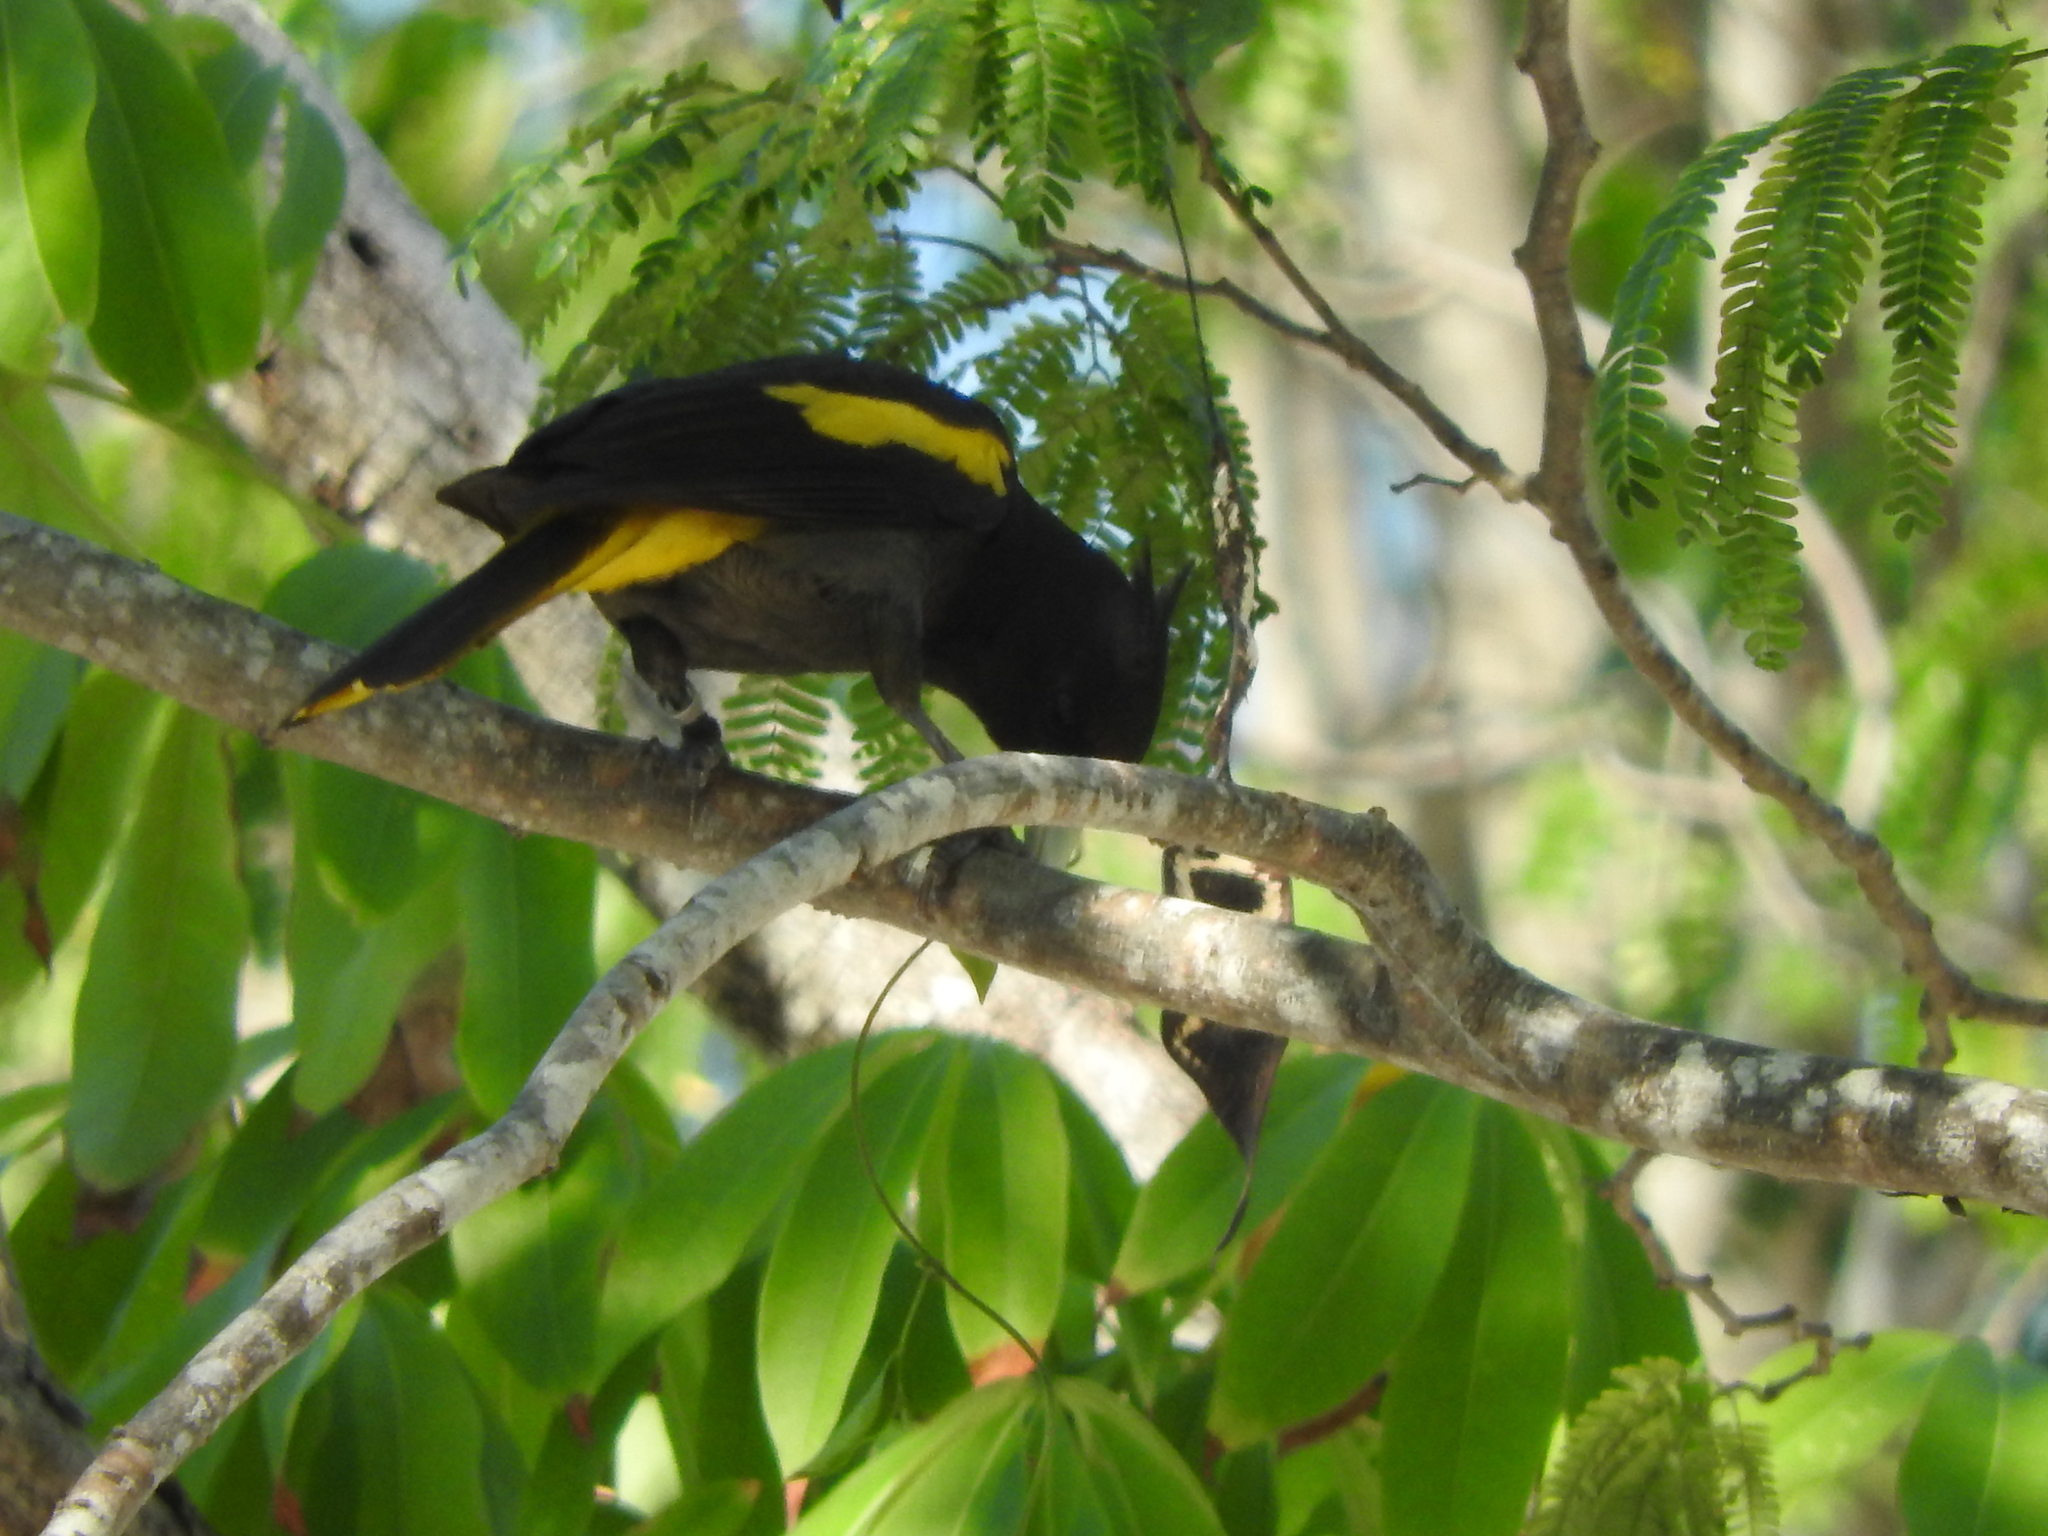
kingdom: Animalia
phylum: Chordata
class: Aves
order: Passeriformes
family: Icteridae
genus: Cacicus
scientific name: Cacicus melanicterus
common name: Yellow-winged cacique
